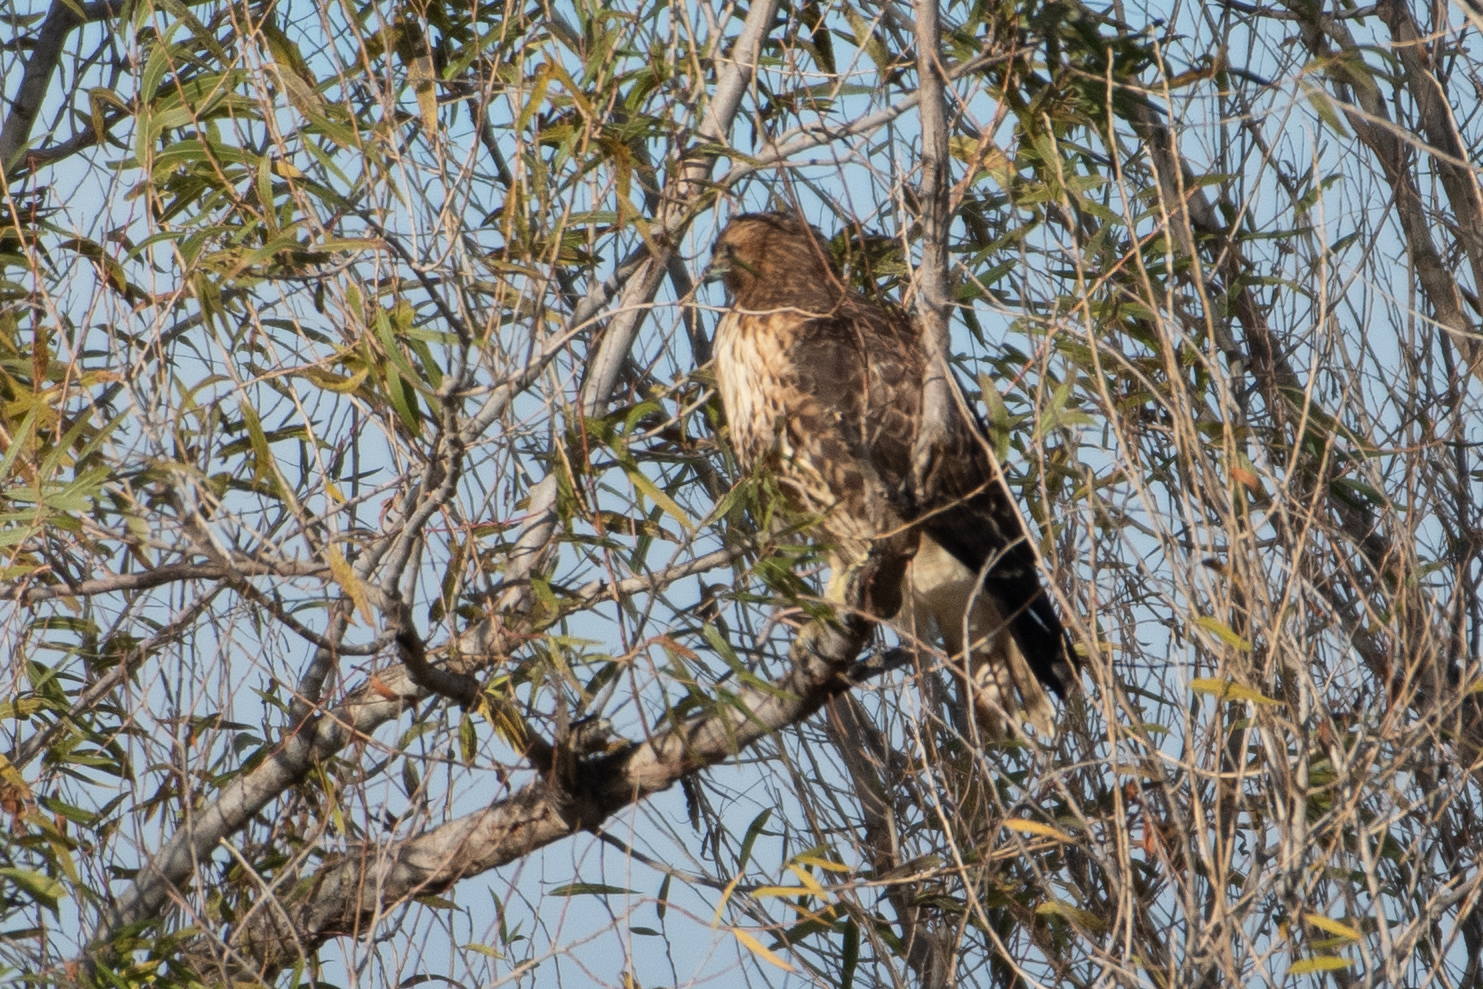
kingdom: Animalia
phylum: Chordata
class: Aves
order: Accipitriformes
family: Accipitridae
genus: Buteo
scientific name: Buteo jamaicensis
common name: Red-tailed hawk
